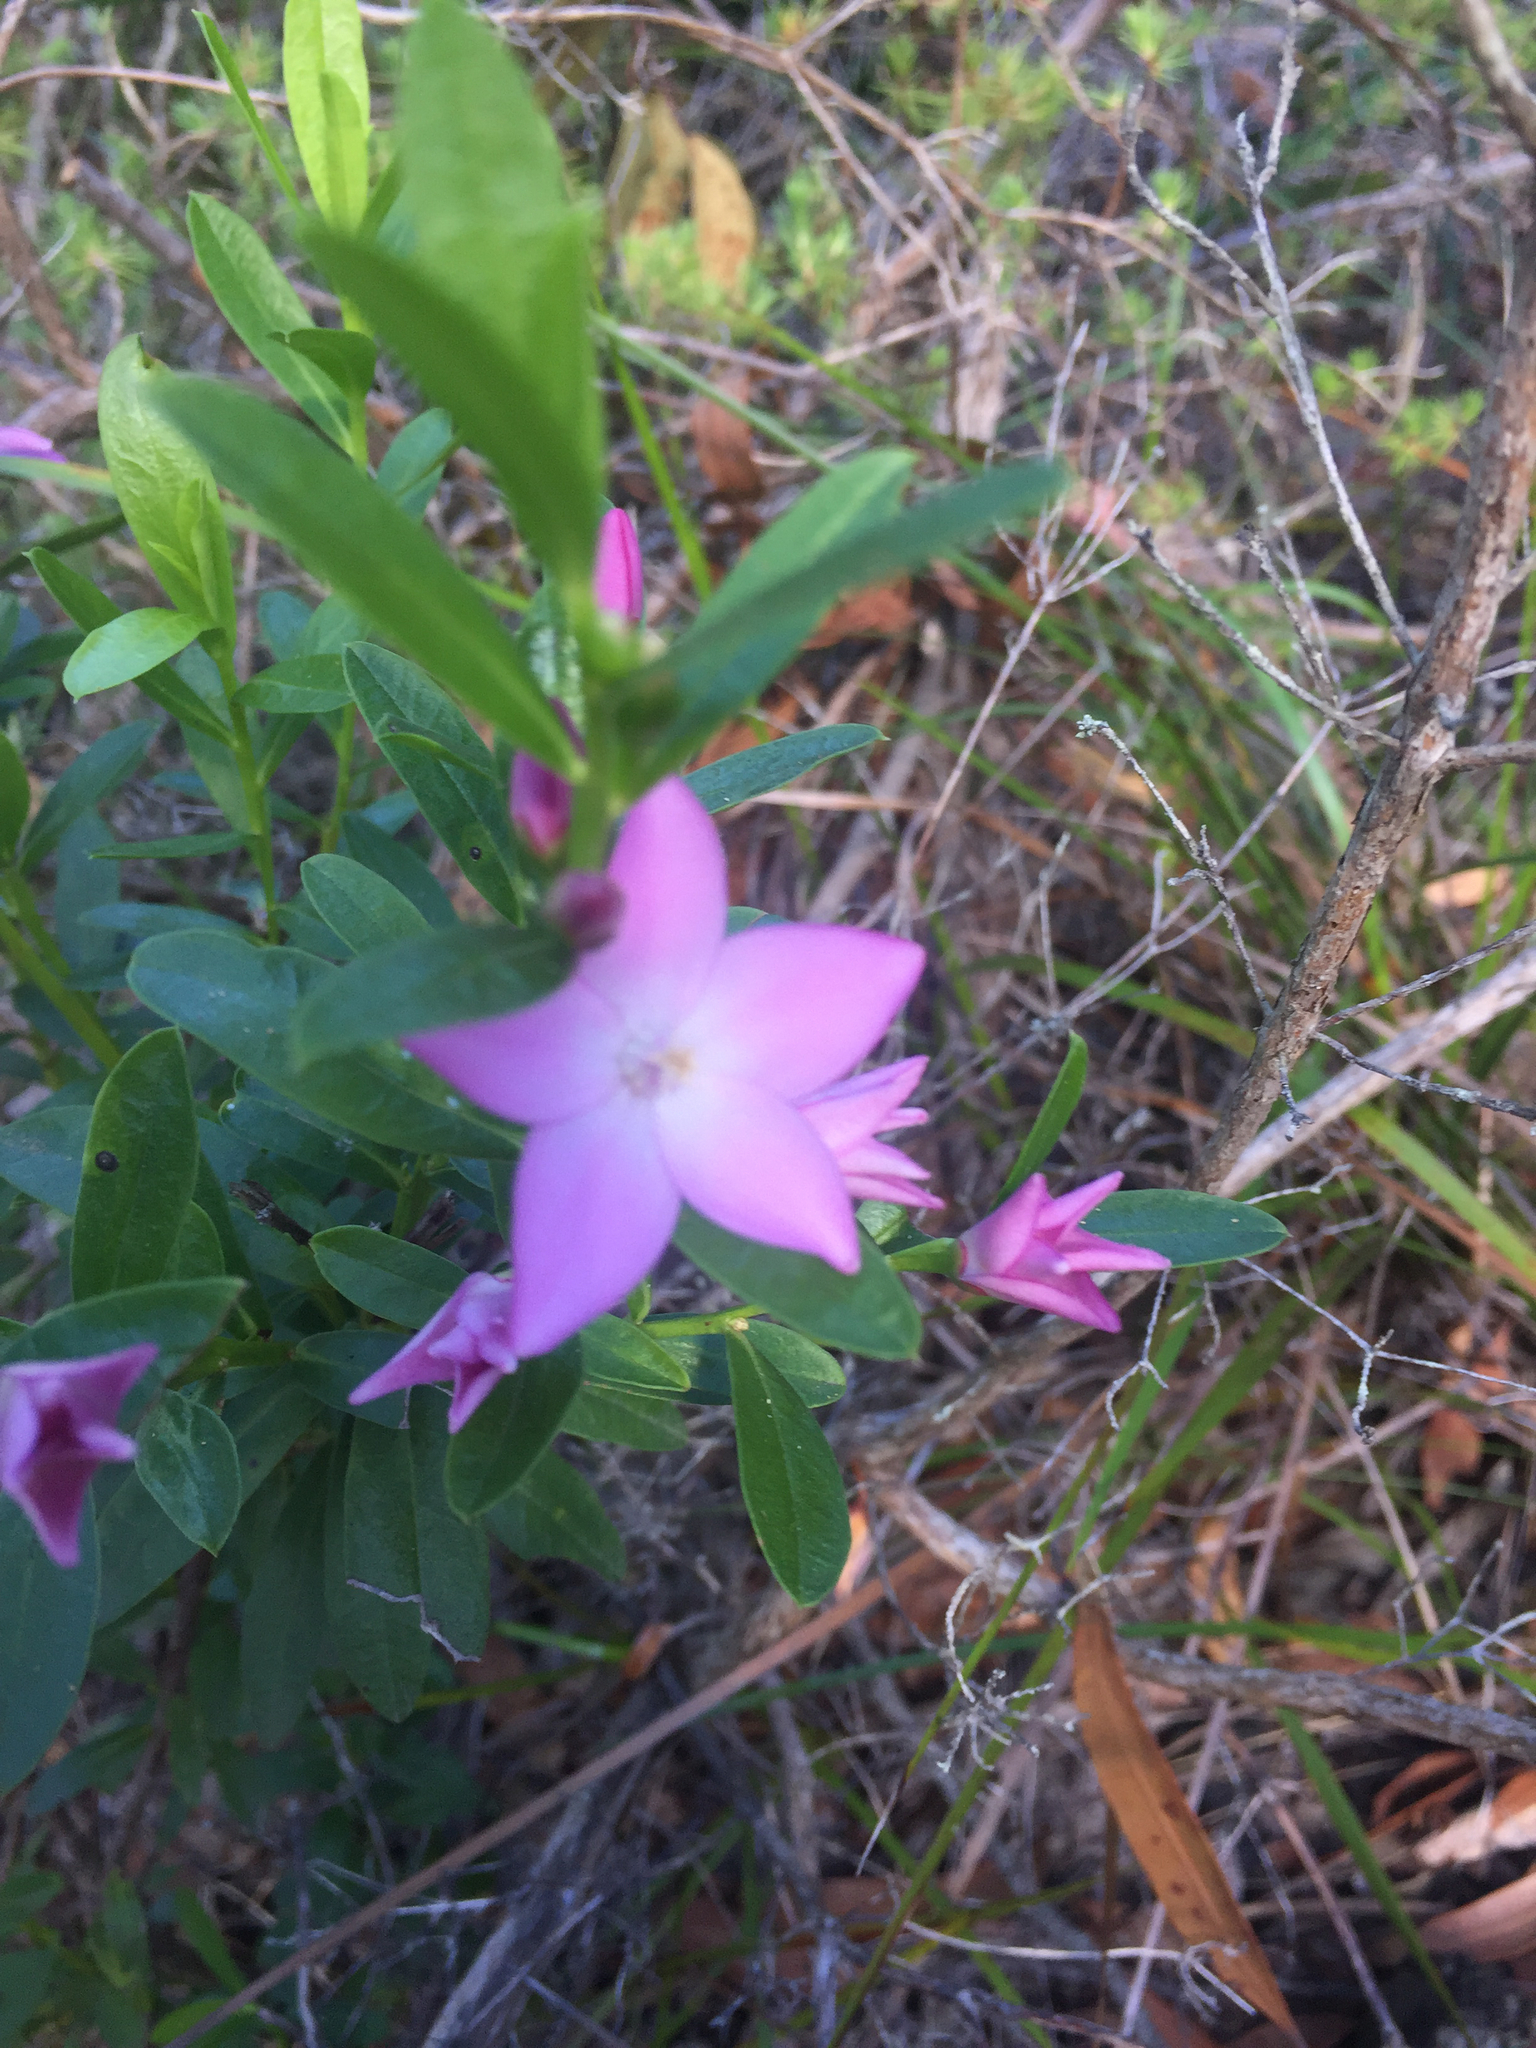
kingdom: Plantae
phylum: Tracheophyta
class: Magnoliopsida
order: Sapindales
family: Rutaceae
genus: Crowea
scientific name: Crowea saligna
